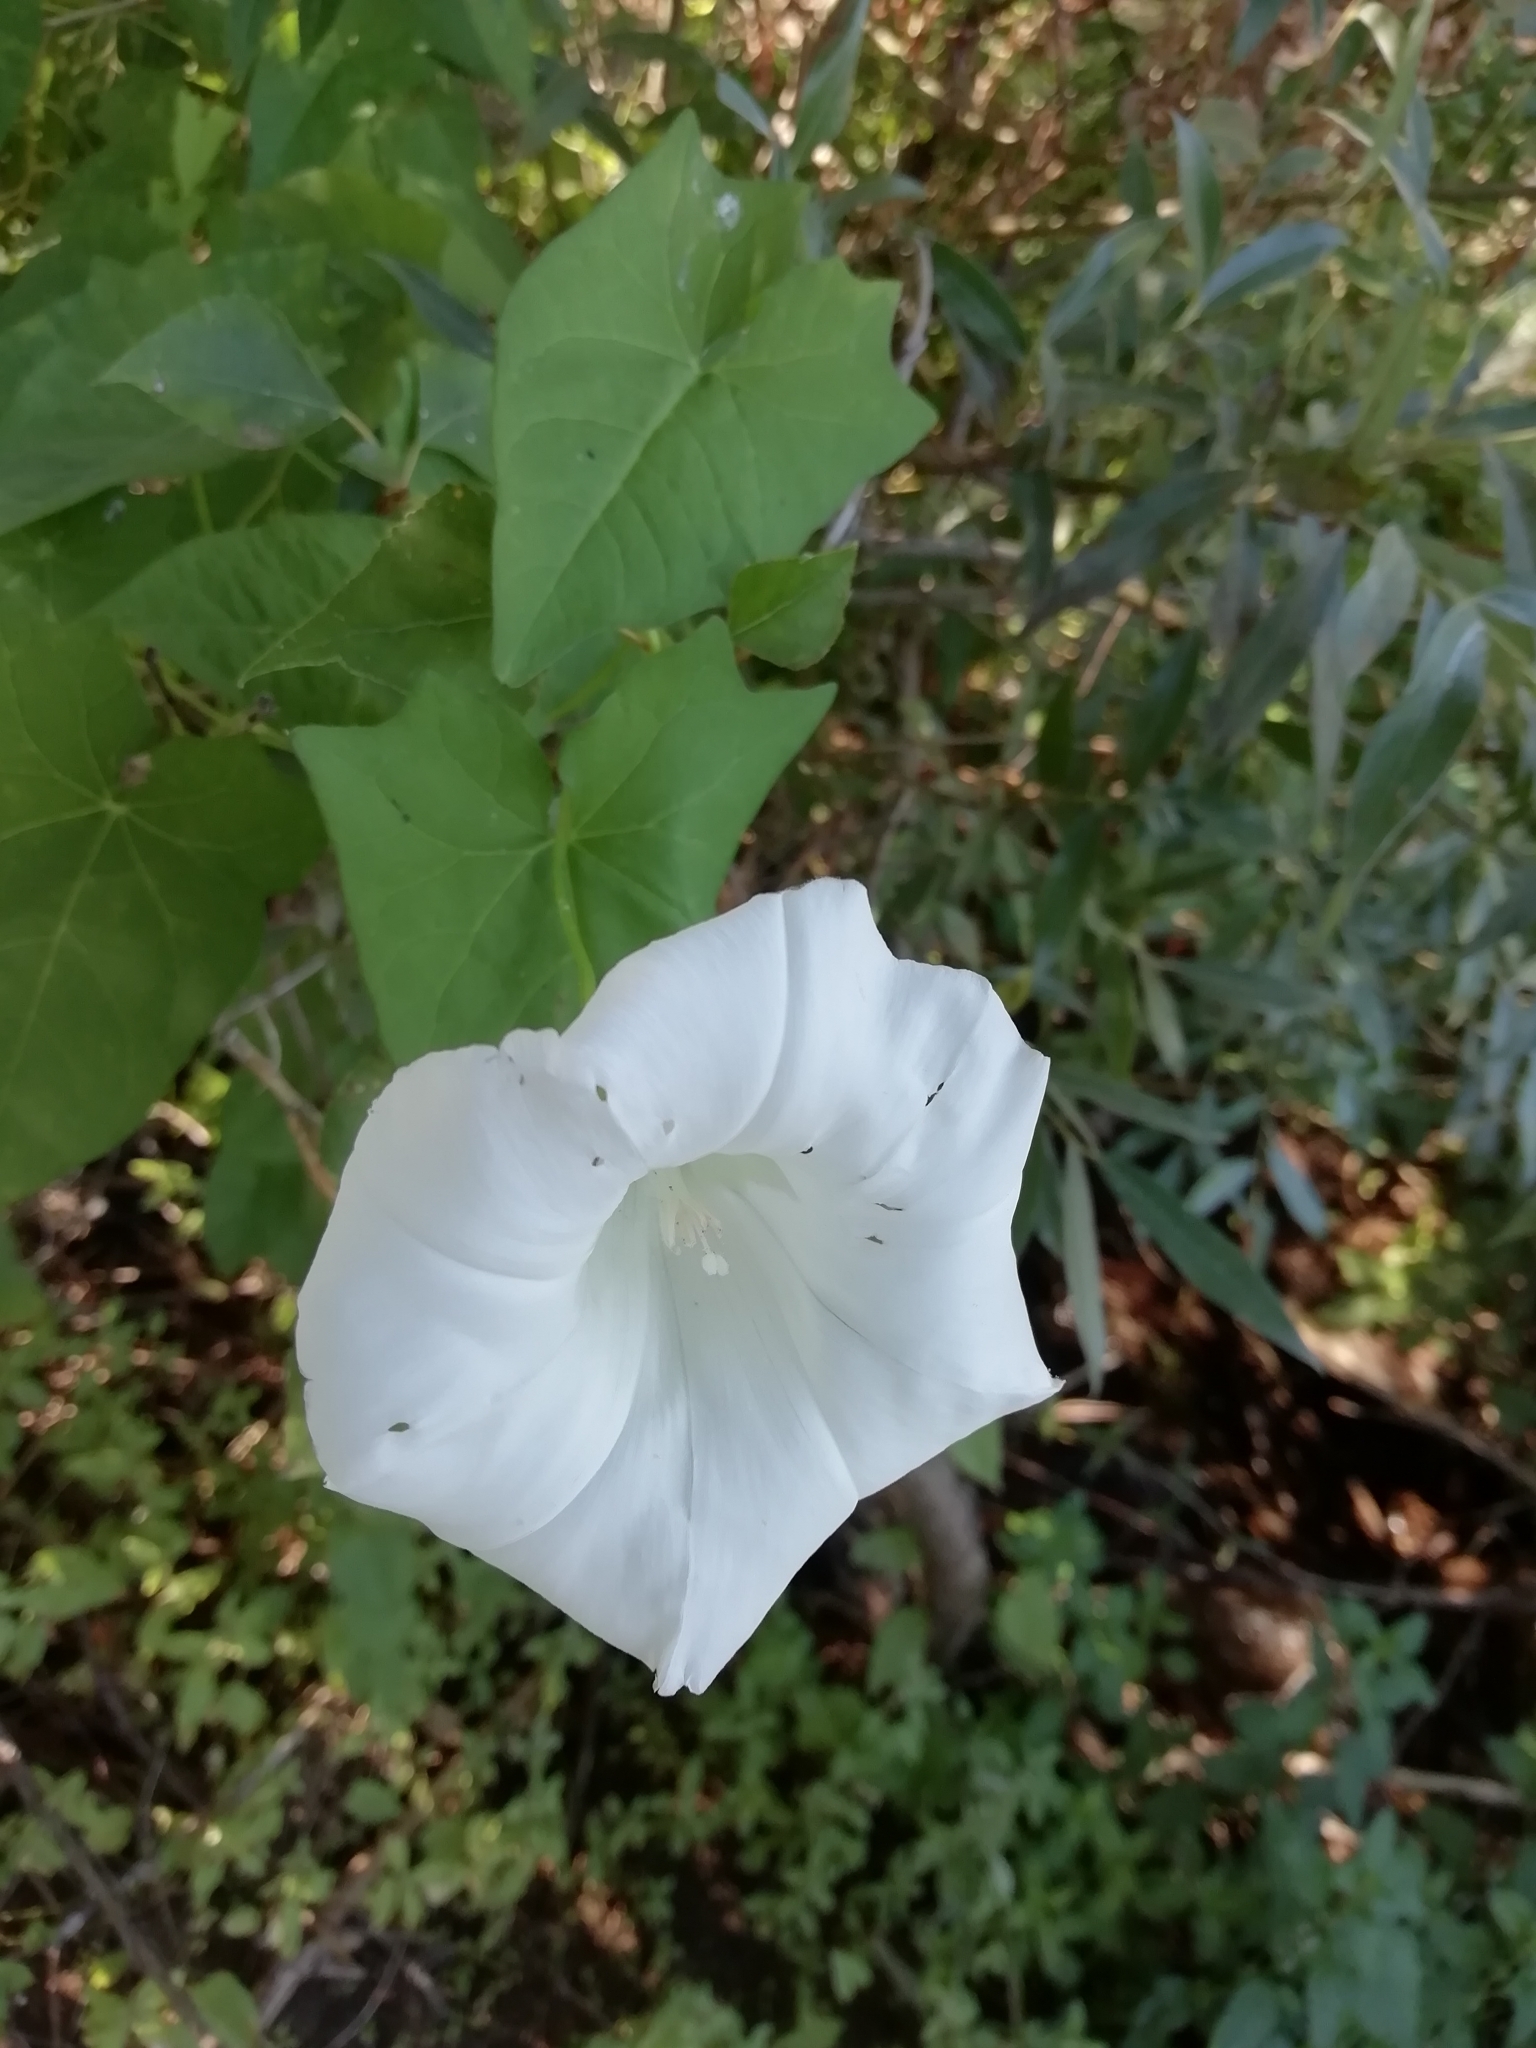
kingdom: Plantae
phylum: Tracheophyta
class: Magnoliopsida
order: Solanales
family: Convolvulaceae
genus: Calystegia
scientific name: Calystegia sepium
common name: Hedge bindweed
